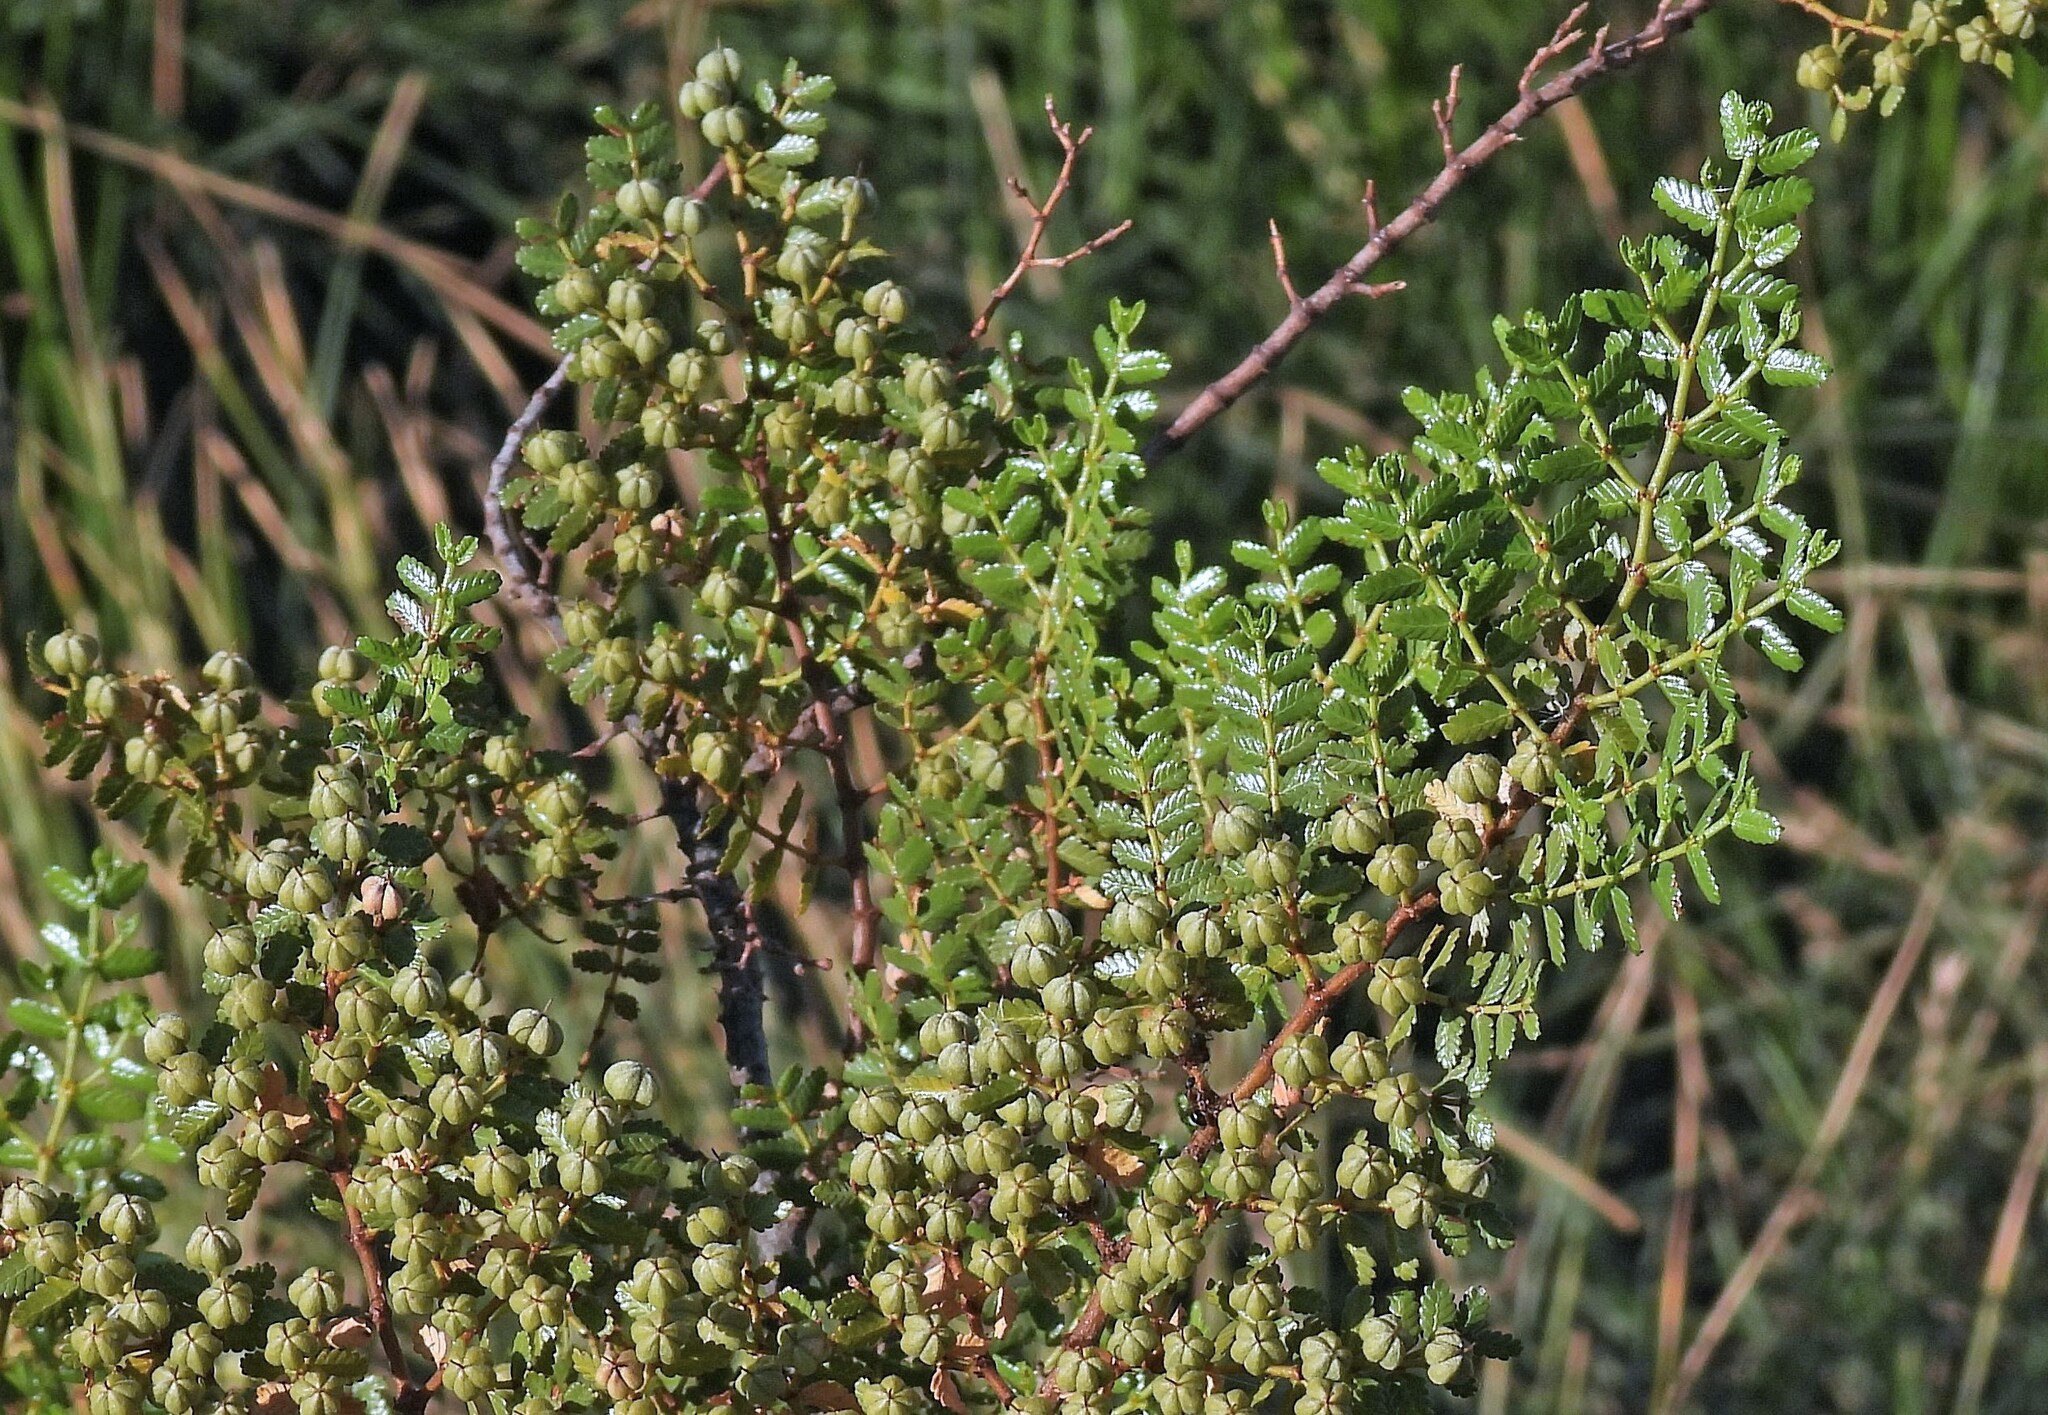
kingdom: Plantae
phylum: Tracheophyta
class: Magnoliopsida
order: Zygophyllales
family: Zygophyllaceae
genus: Larrea
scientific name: Larrea nitida
